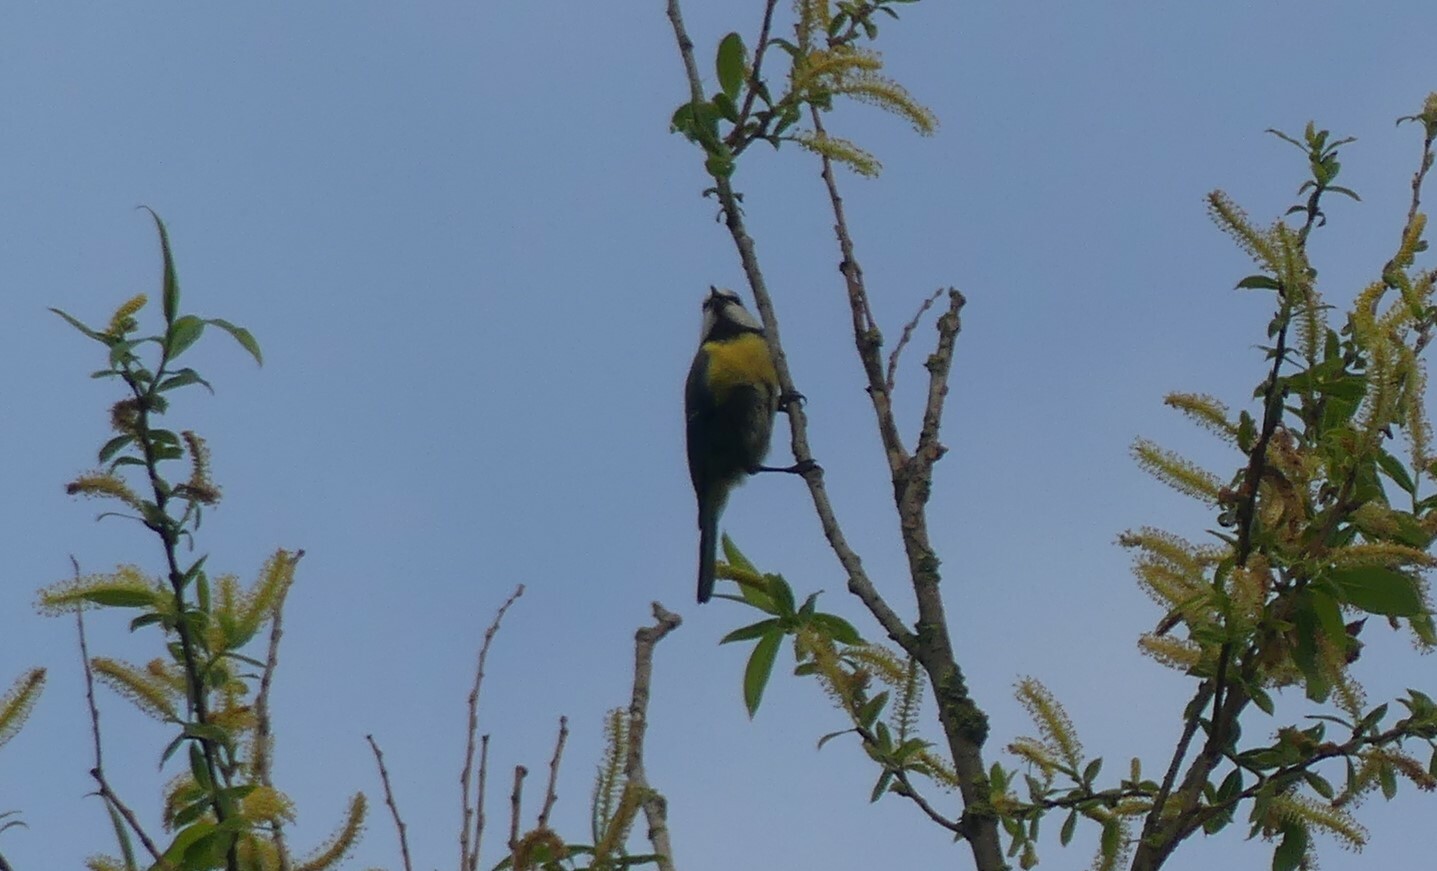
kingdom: Animalia
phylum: Chordata
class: Aves
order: Passeriformes
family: Paridae
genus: Cyanistes
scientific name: Cyanistes caeruleus
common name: Eurasian blue tit
